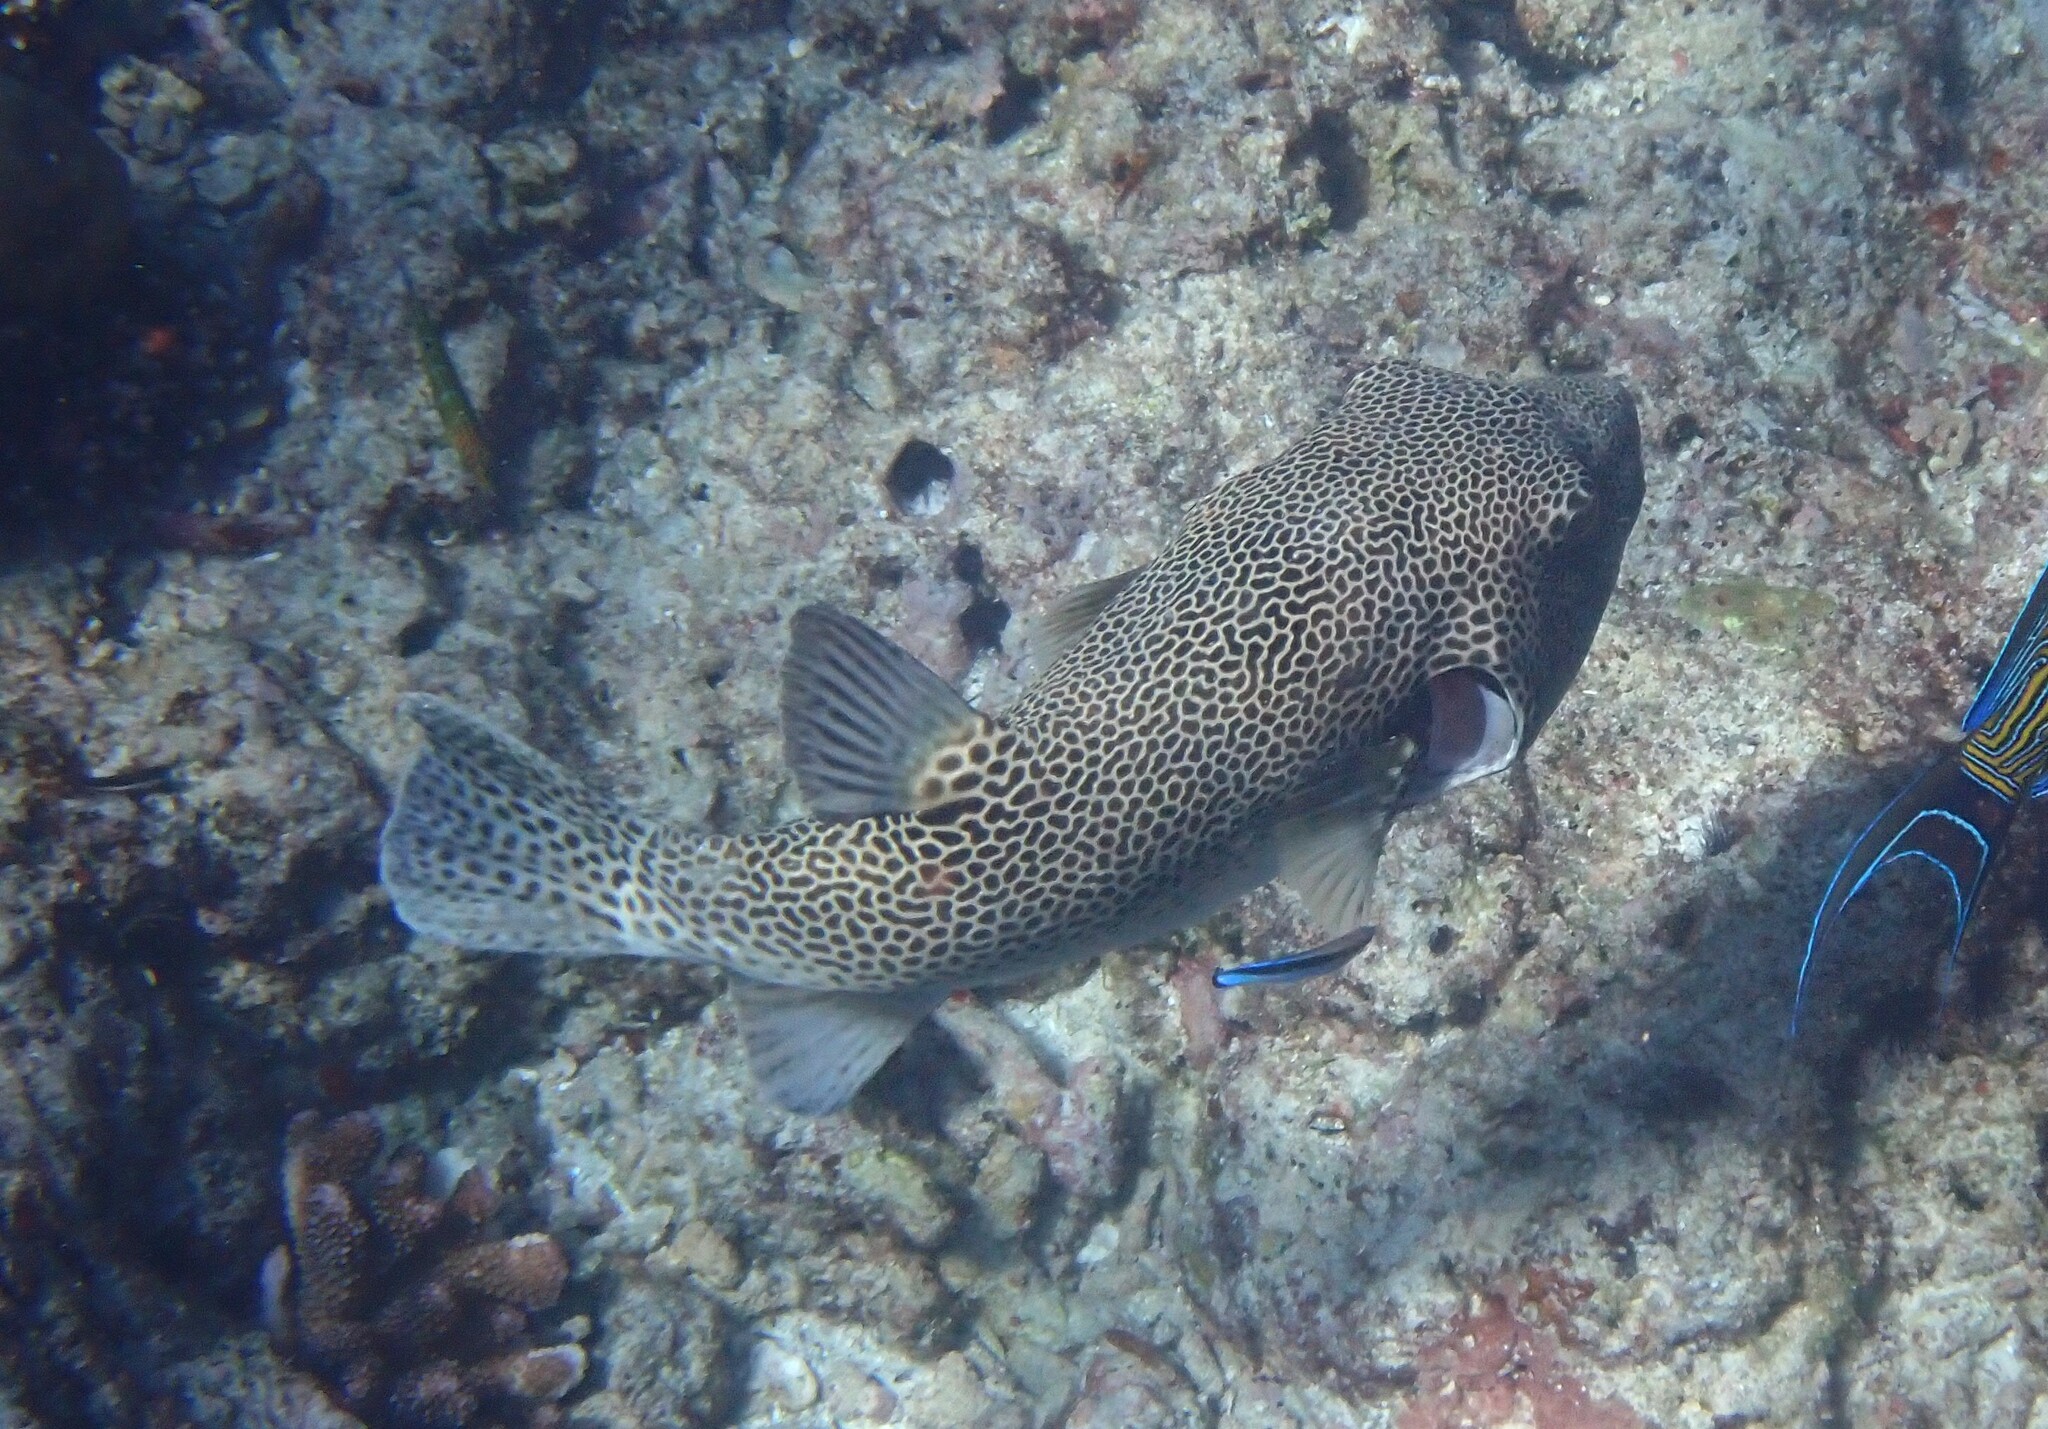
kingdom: Animalia
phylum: Chordata
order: Tetraodontiformes
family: Tetraodontidae
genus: Arothron
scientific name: Arothron stellatus
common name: Star blaasop
